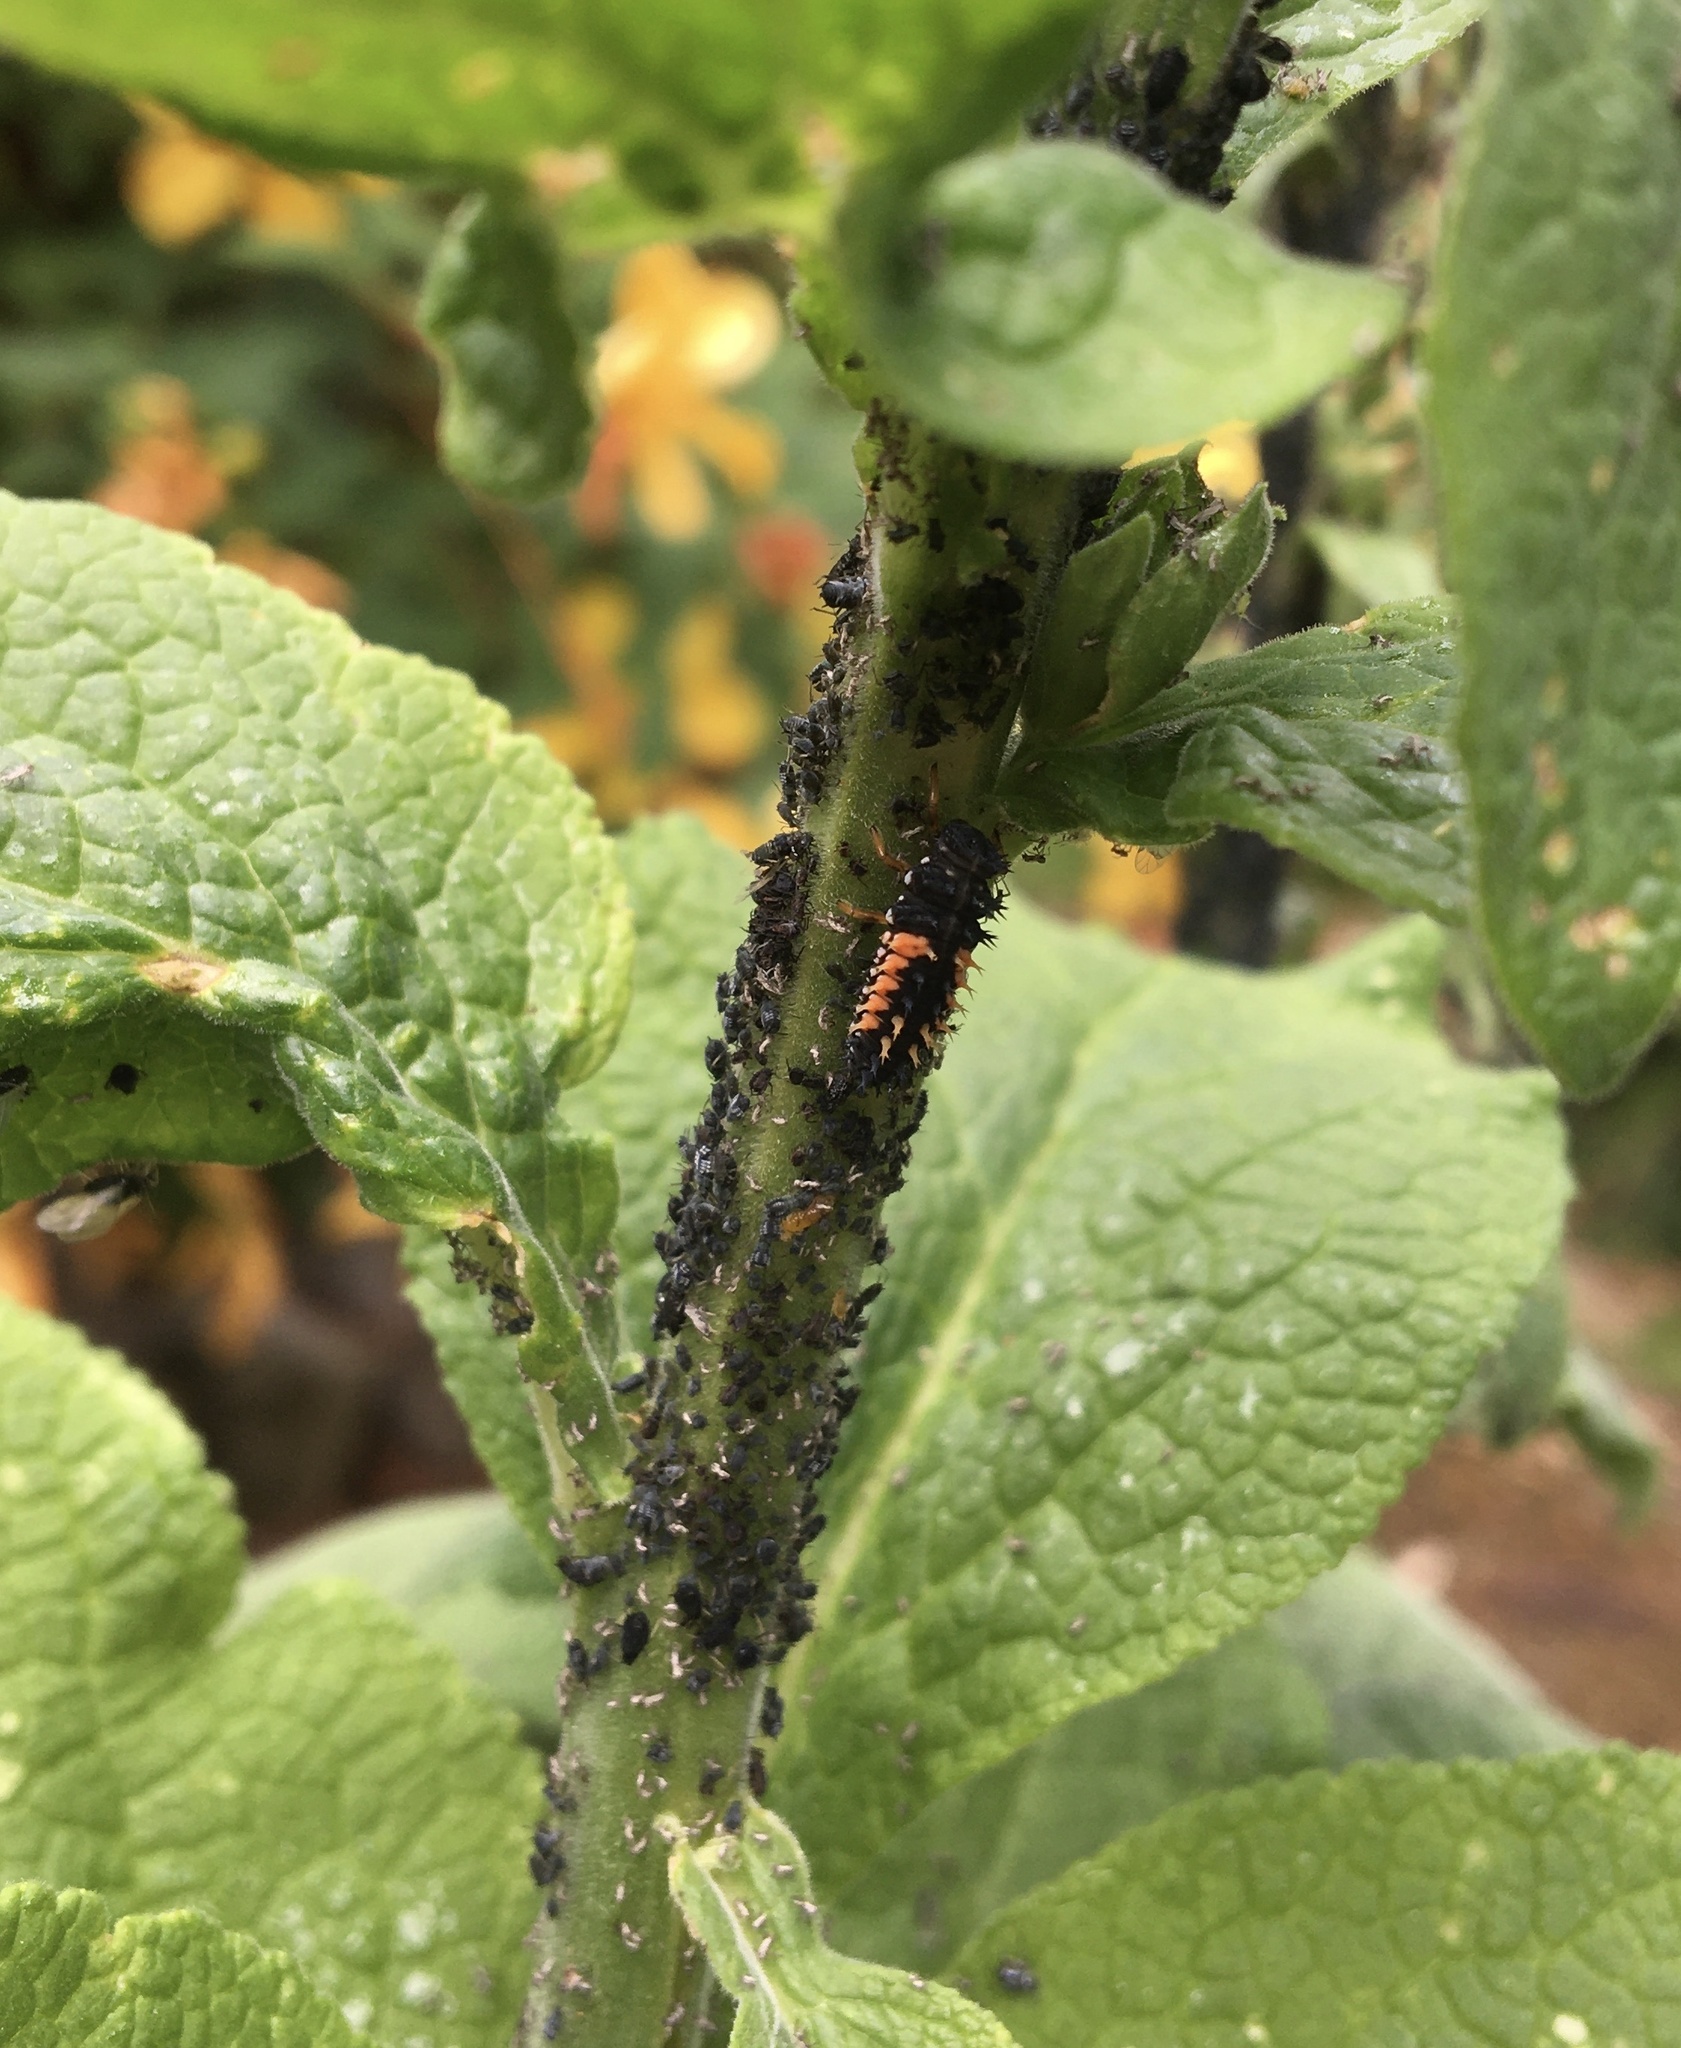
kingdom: Animalia
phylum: Arthropoda
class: Insecta
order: Coleoptera
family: Coccinellidae
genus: Harmonia
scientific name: Harmonia axyridis
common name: Harlequin ladybird
